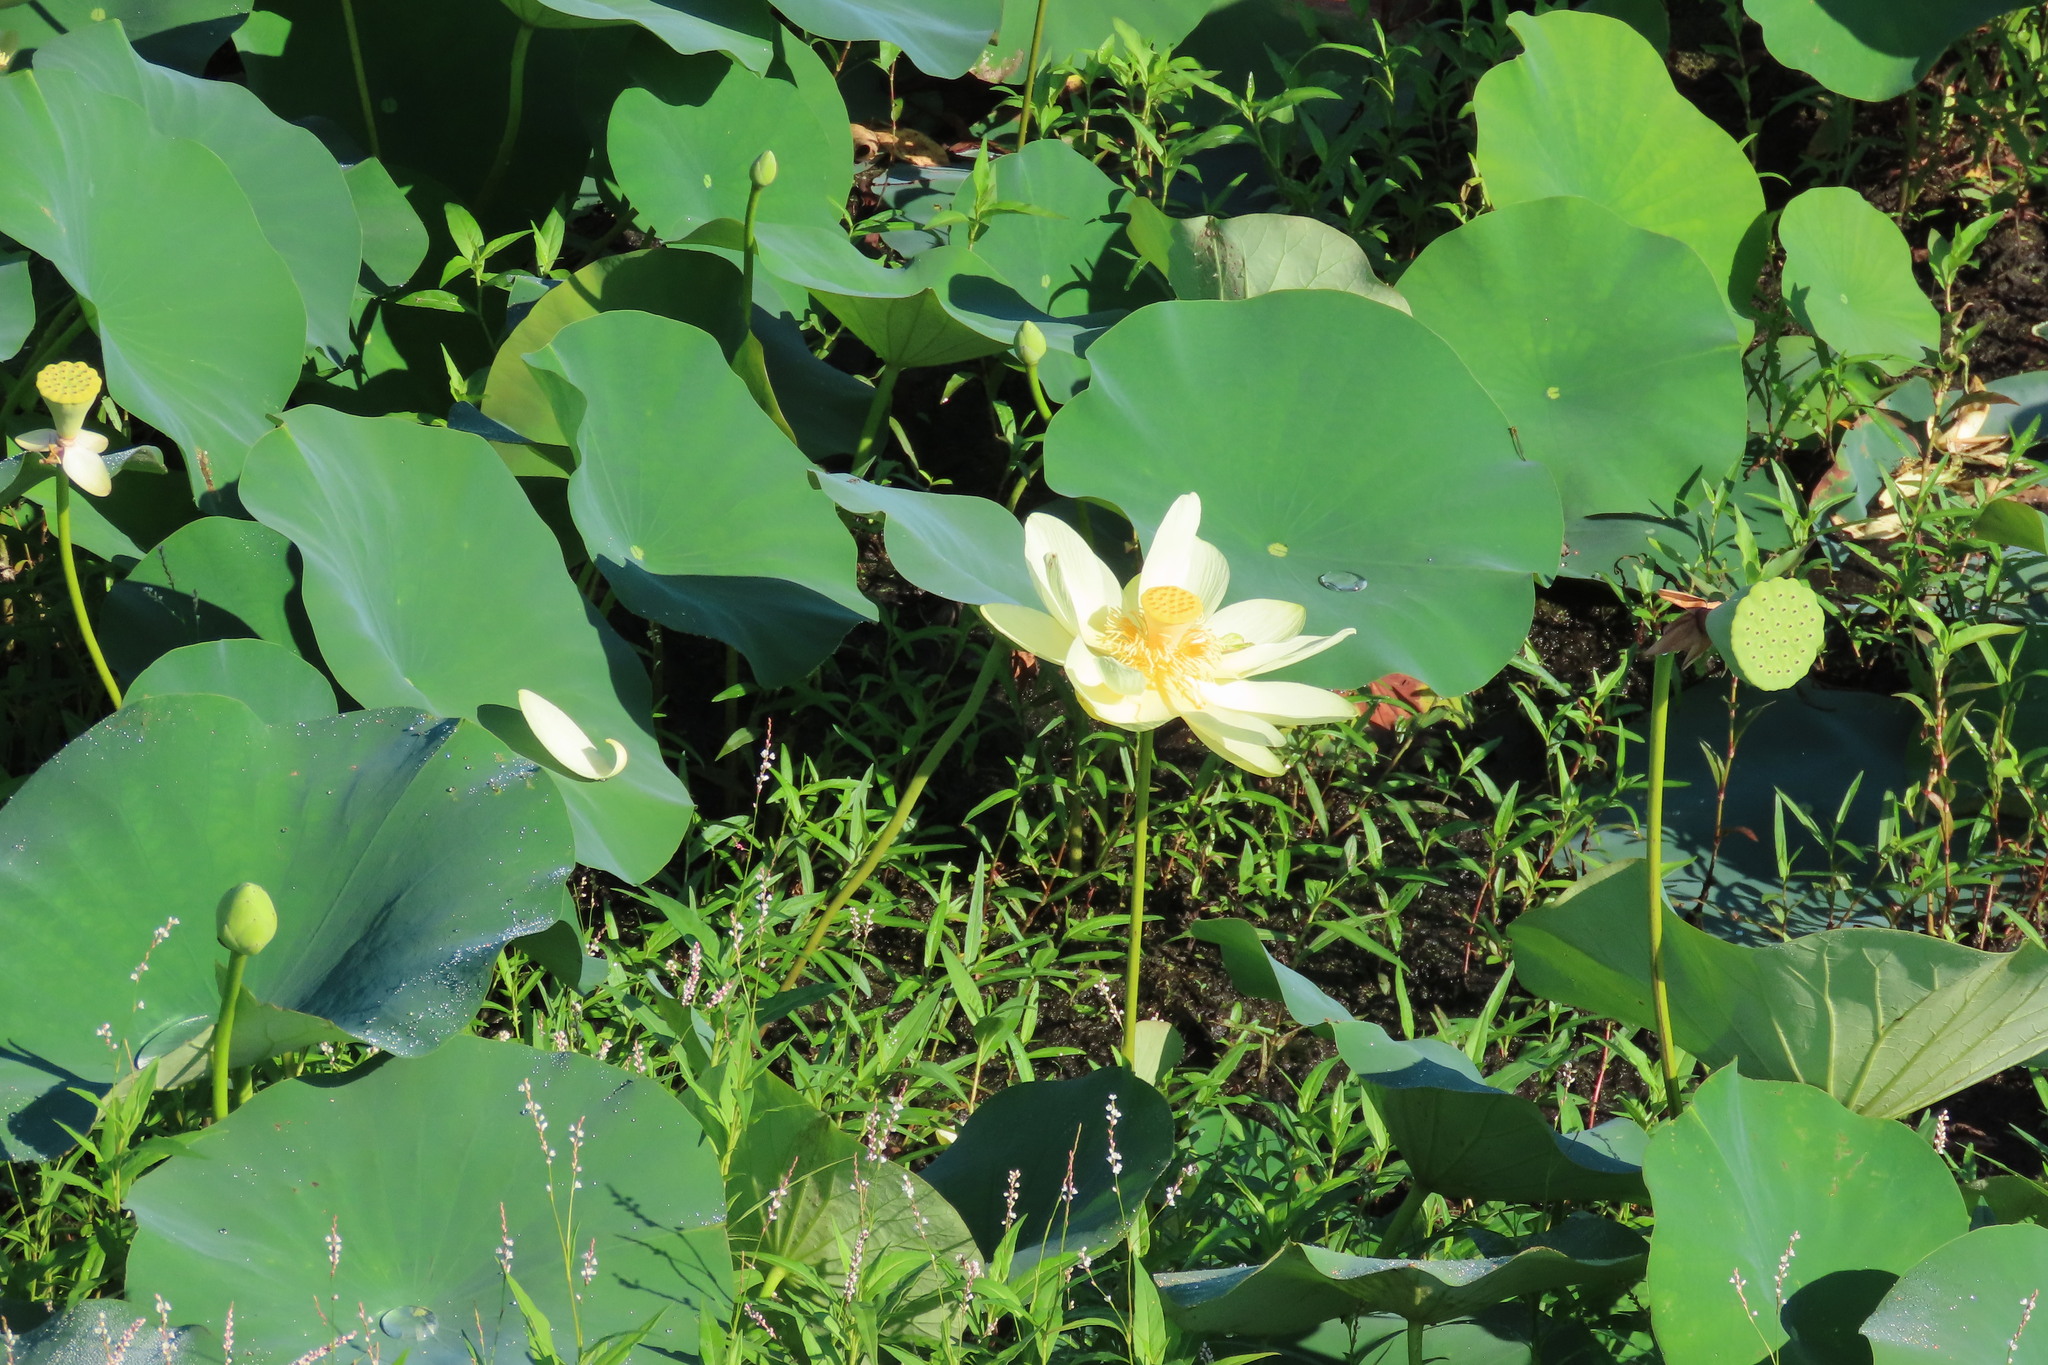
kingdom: Plantae
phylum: Tracheophyta
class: Magnoliopsida
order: Proteales
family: Nelumbonaceae
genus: Nelumbo
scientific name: Nelumbo lutea
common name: American lotus
